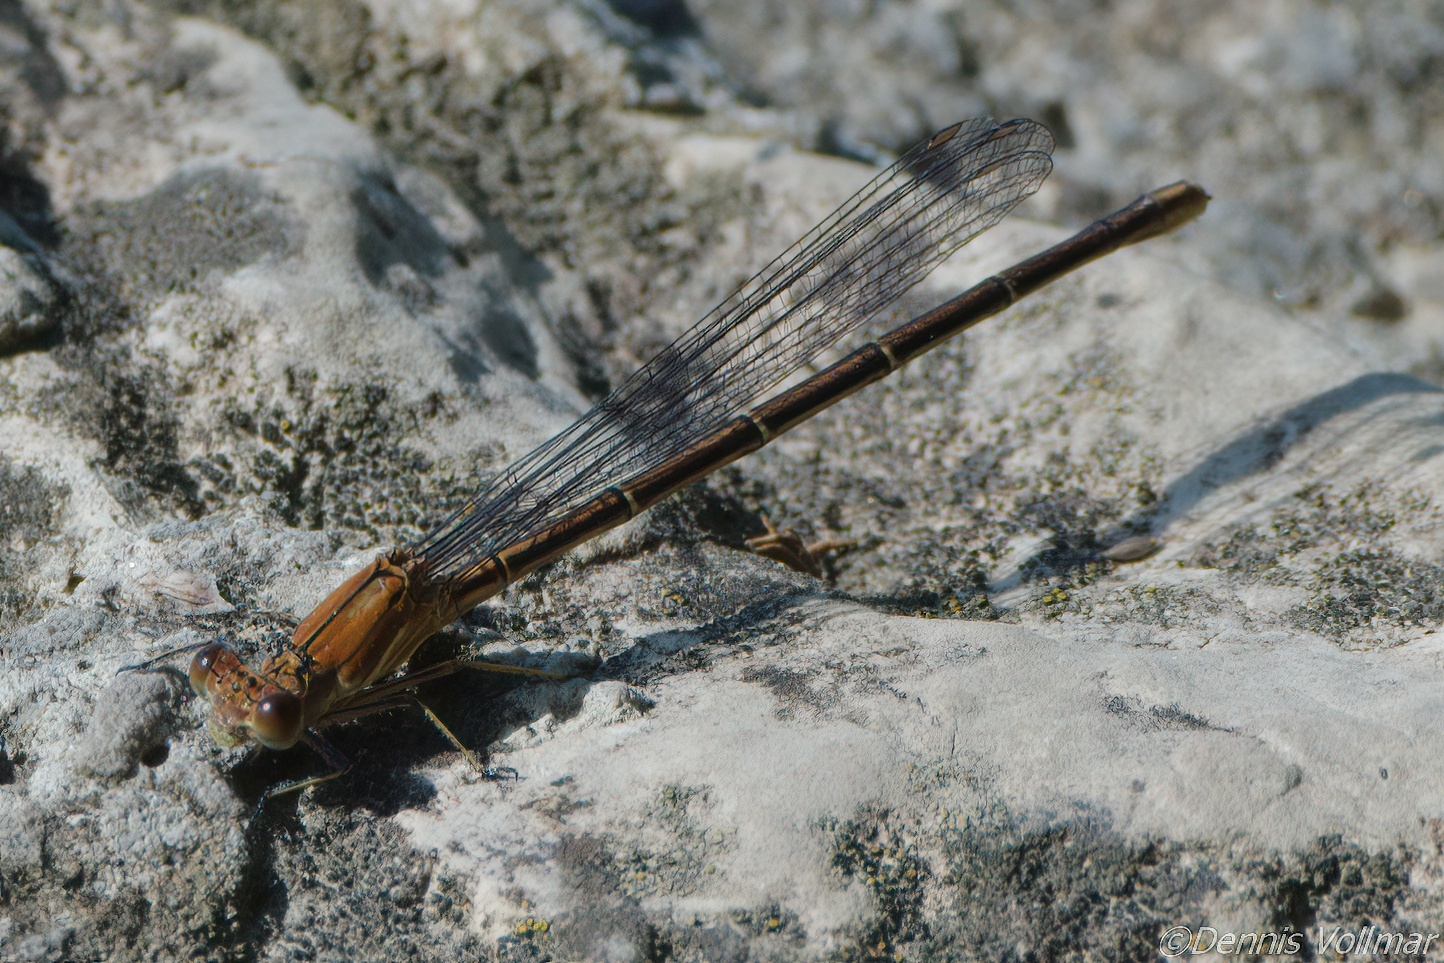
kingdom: Animalia
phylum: Arthropoda
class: Insecta
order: Odonata
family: Coenagrionidae
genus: Argia
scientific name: Argia moesta
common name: Powdered dancer
